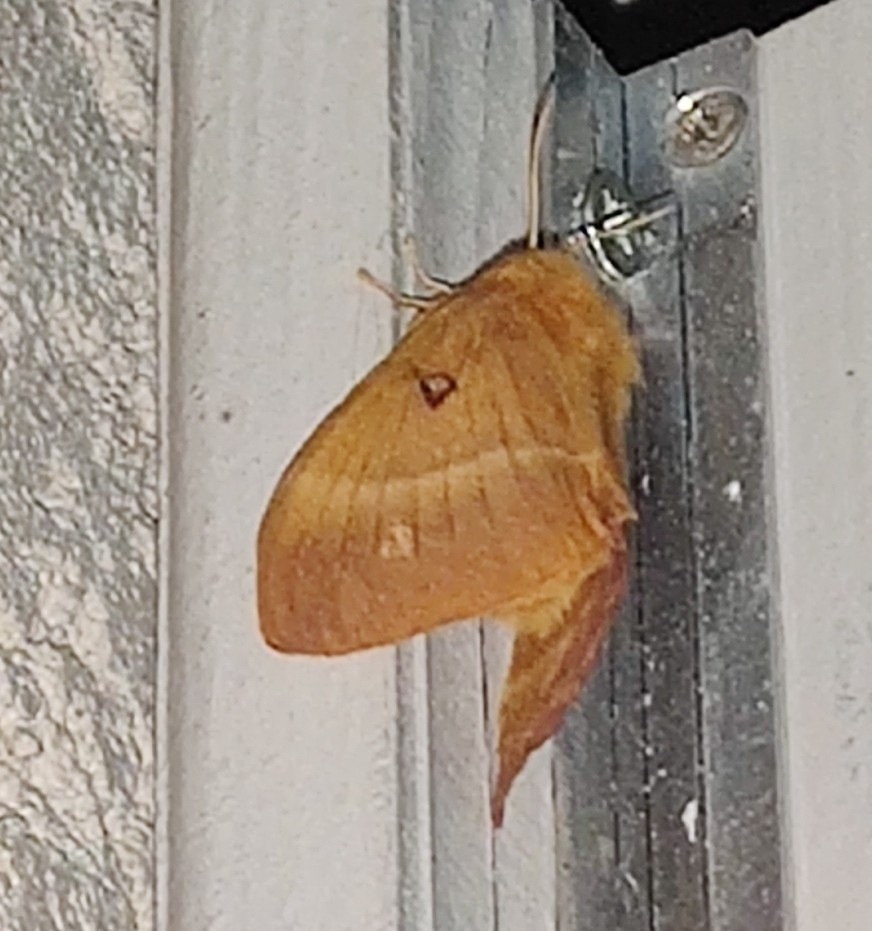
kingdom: Animalia
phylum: Arthropoda
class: Insecta
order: Lepidoptera
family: Lasiocampidae
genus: Lasiocampa
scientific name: Lasiocampa quercus
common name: Oak eggar
